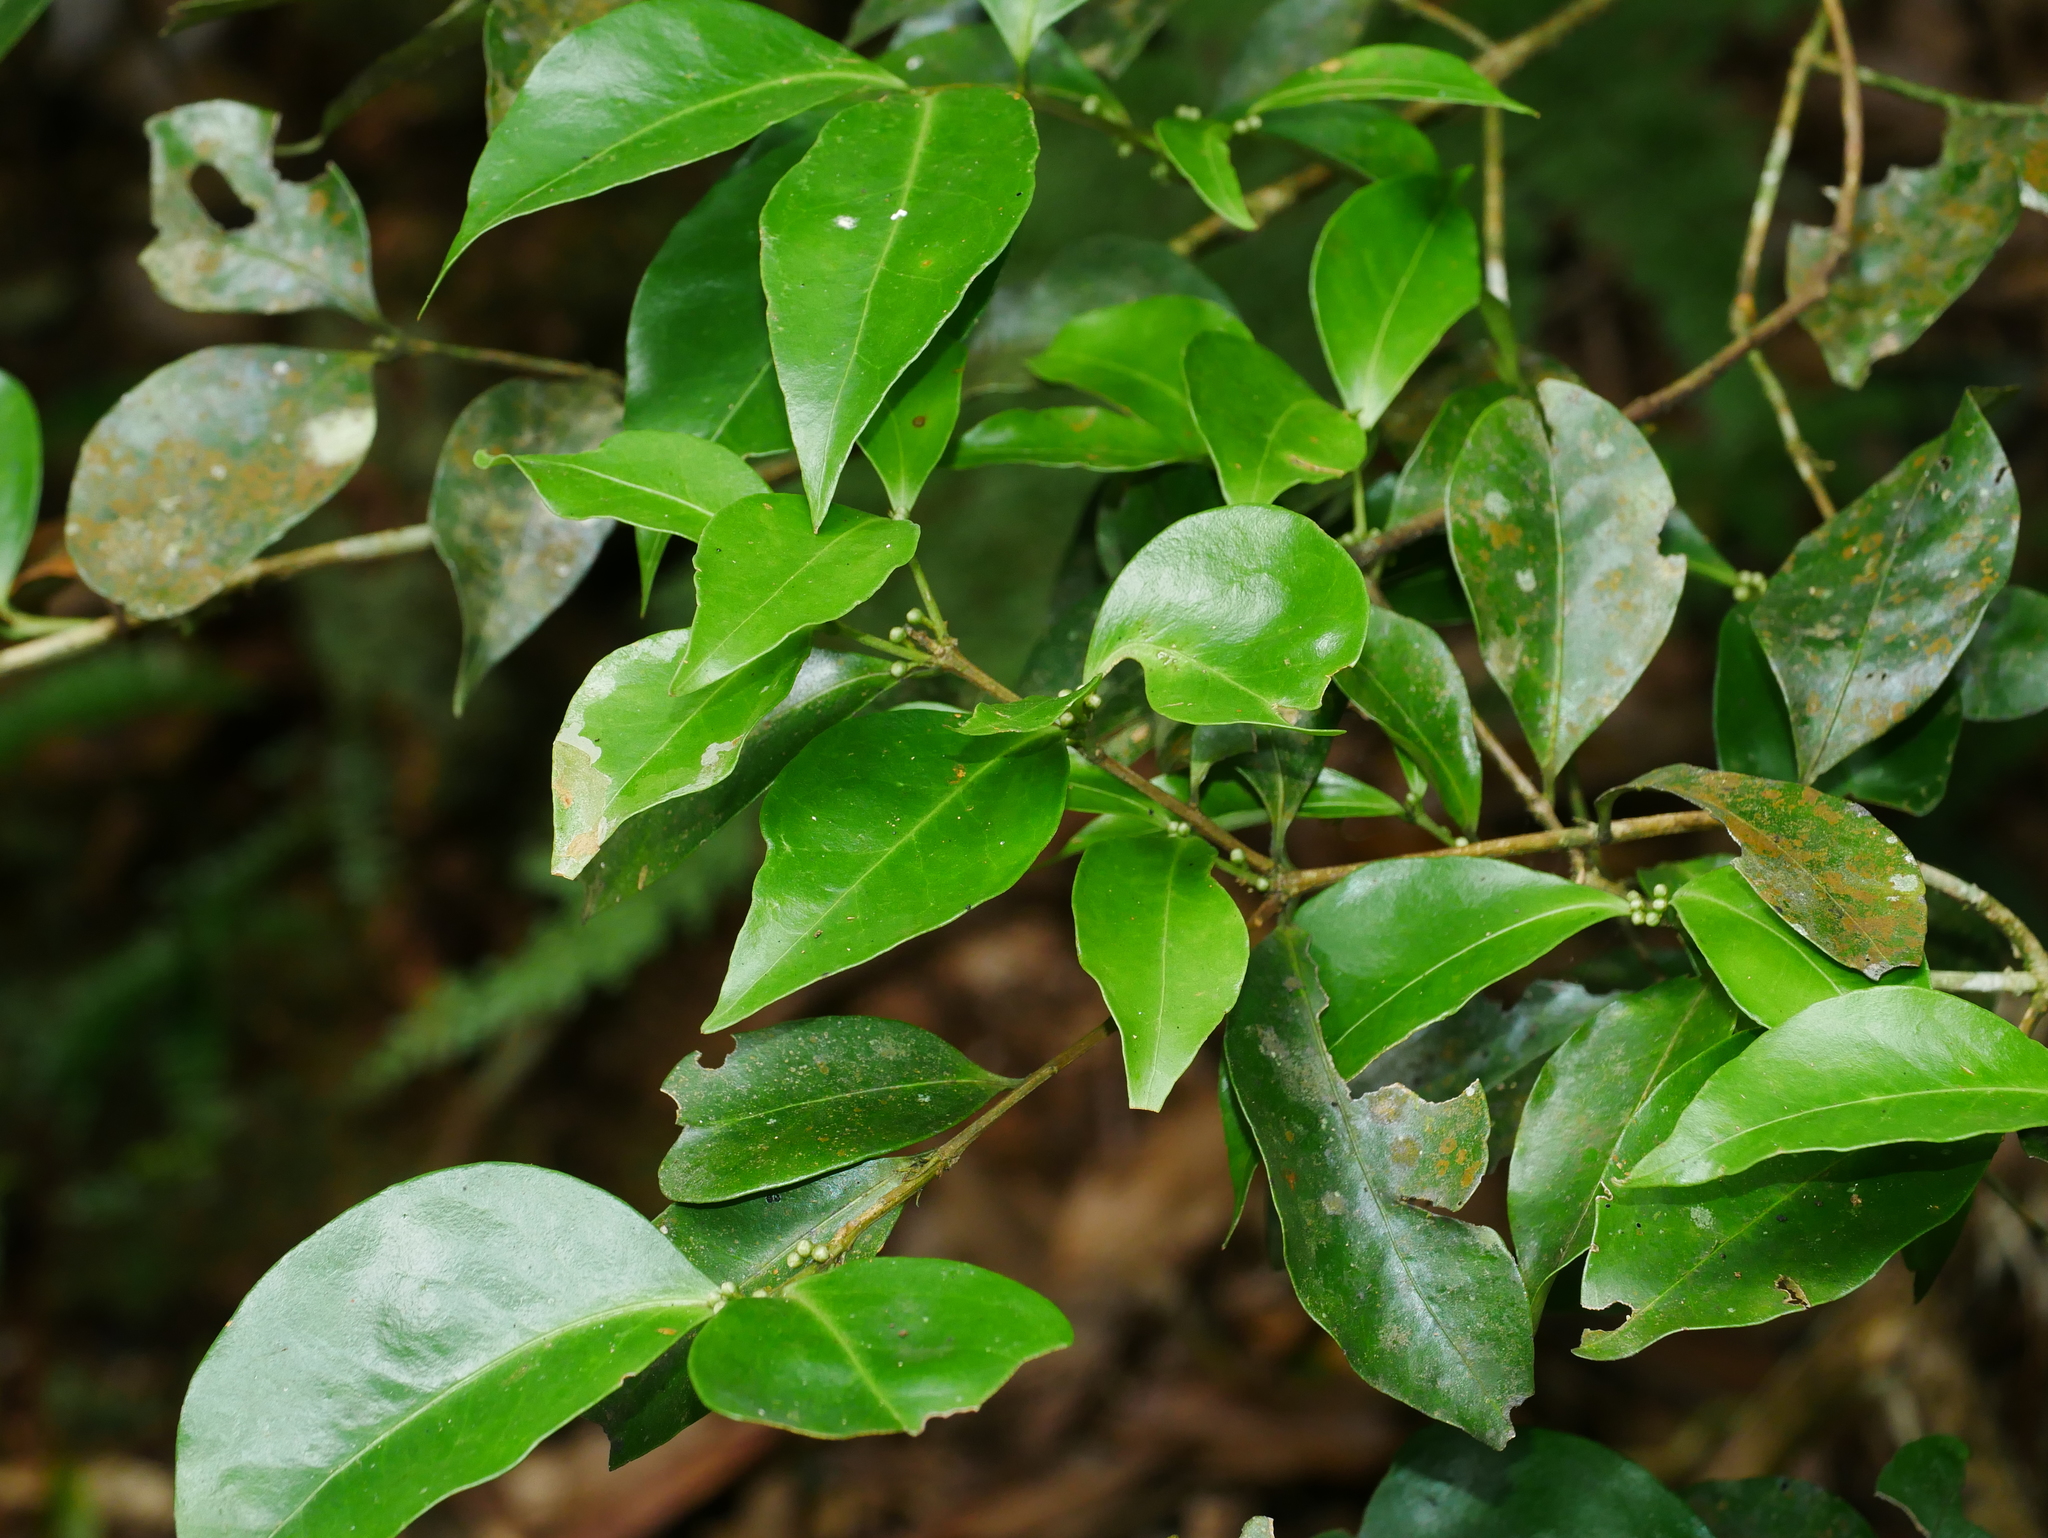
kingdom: Plantae
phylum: Tracheophyta
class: Magnoliopsida
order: Celastrales
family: Celastraceae
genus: Microtropis
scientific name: Microtropis yunnanensis
